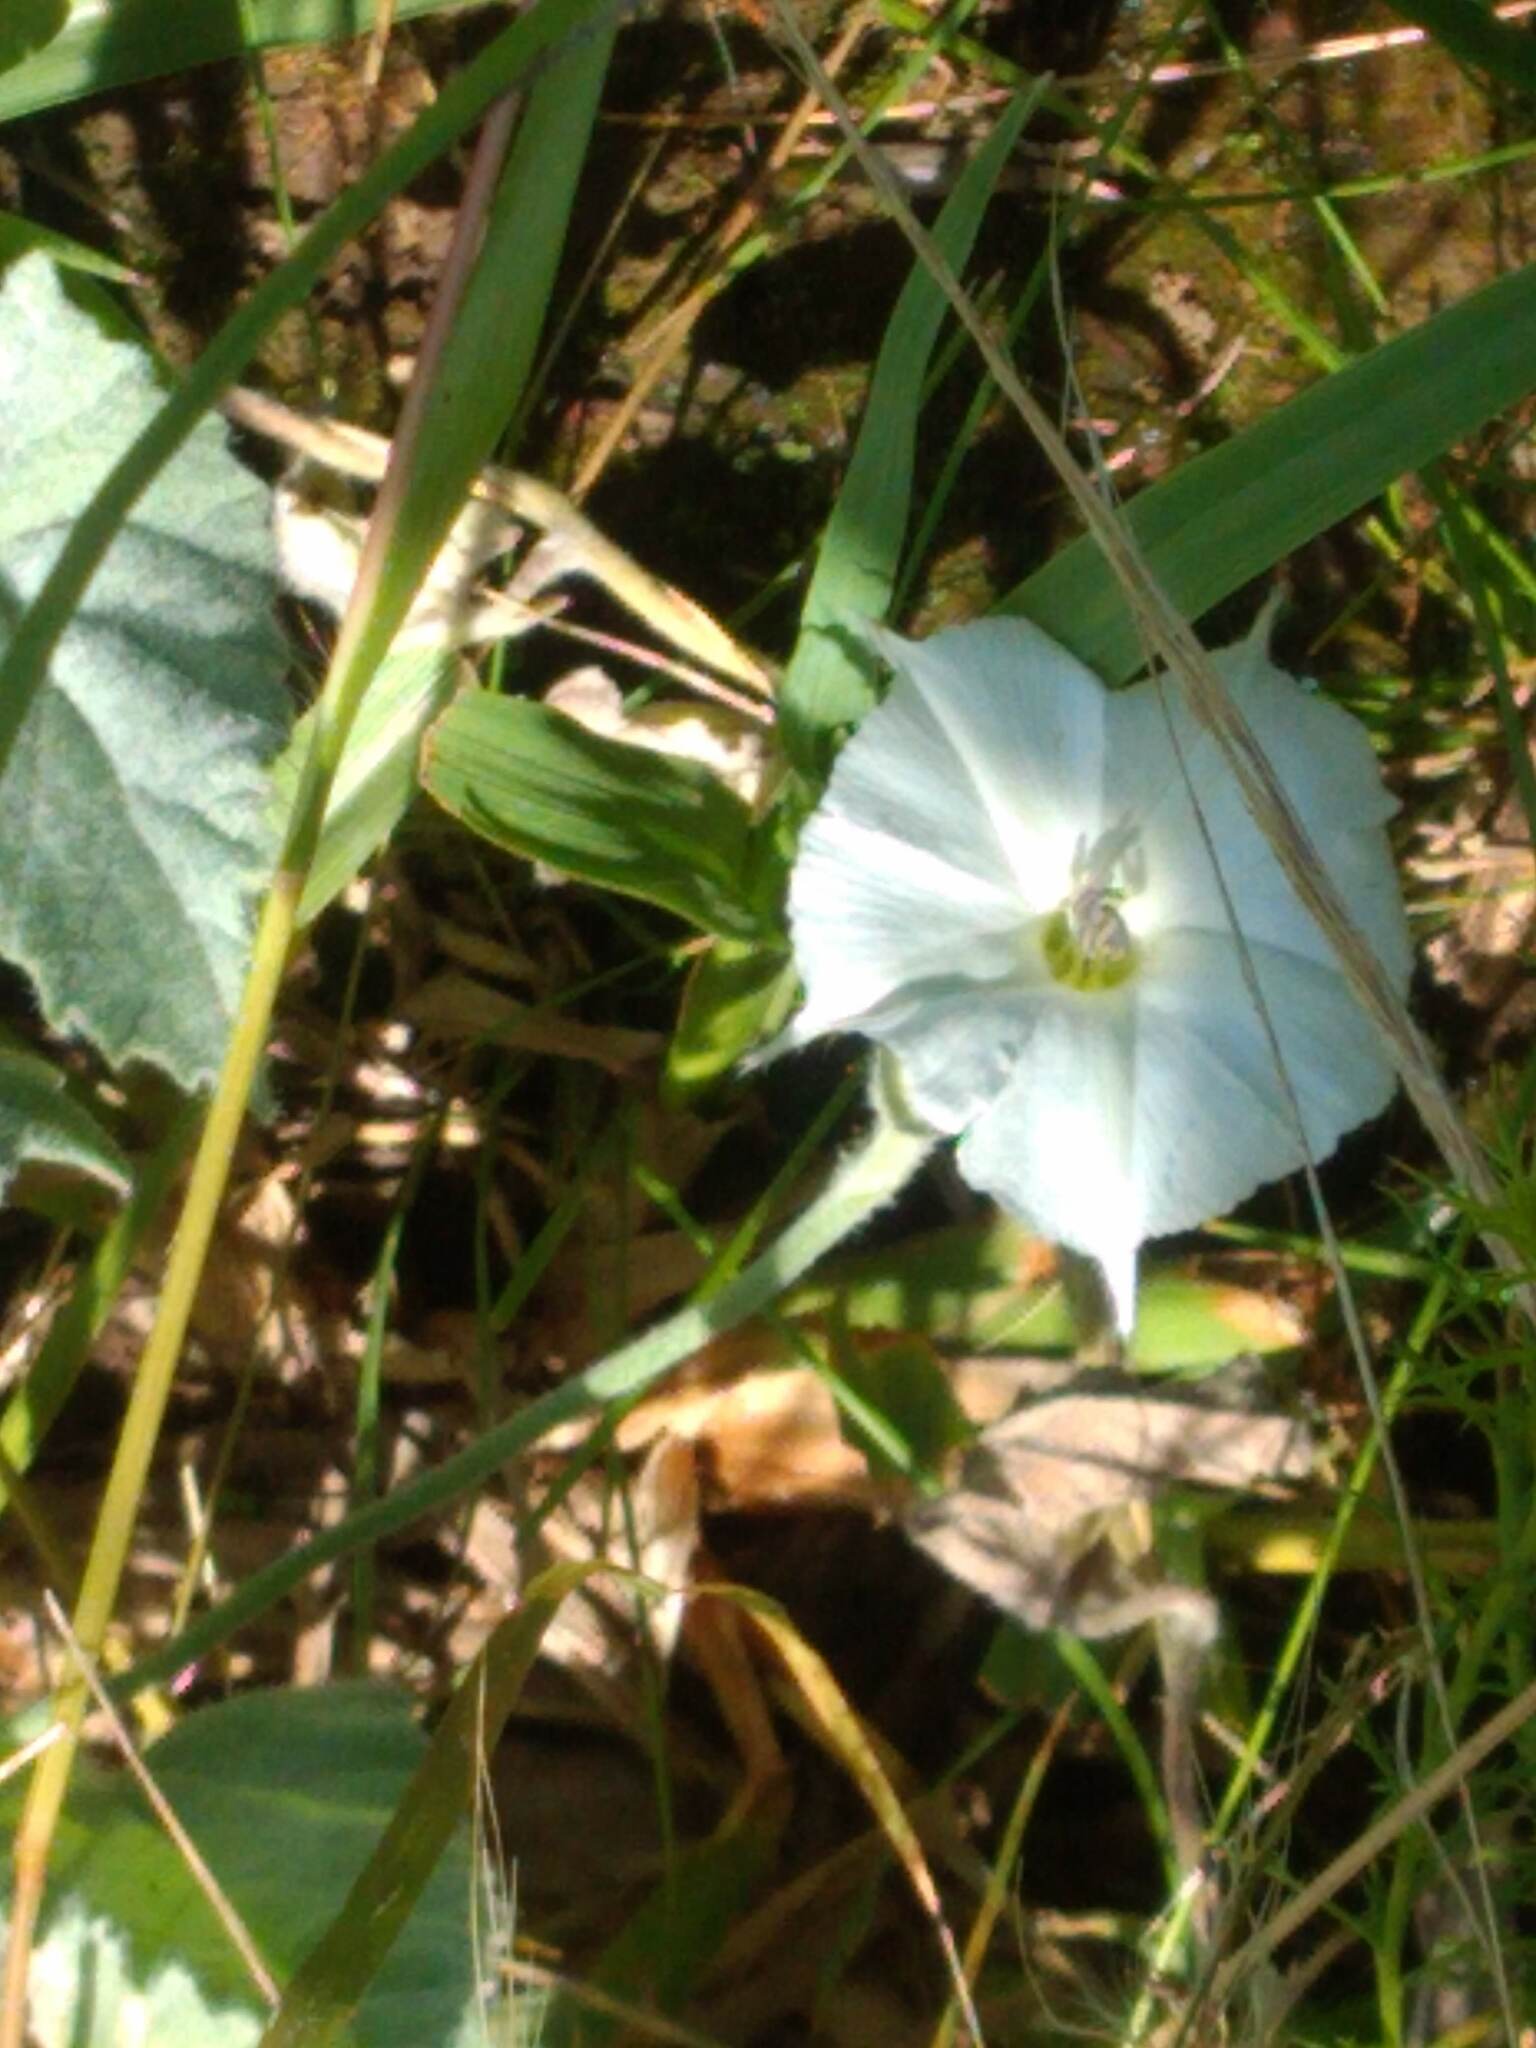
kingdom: Plantae
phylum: Tracheophyta
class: Magnoliopsida
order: Solanales
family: Convolvulaceae
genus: Convolvulus
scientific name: Convolvulus hermanniae
